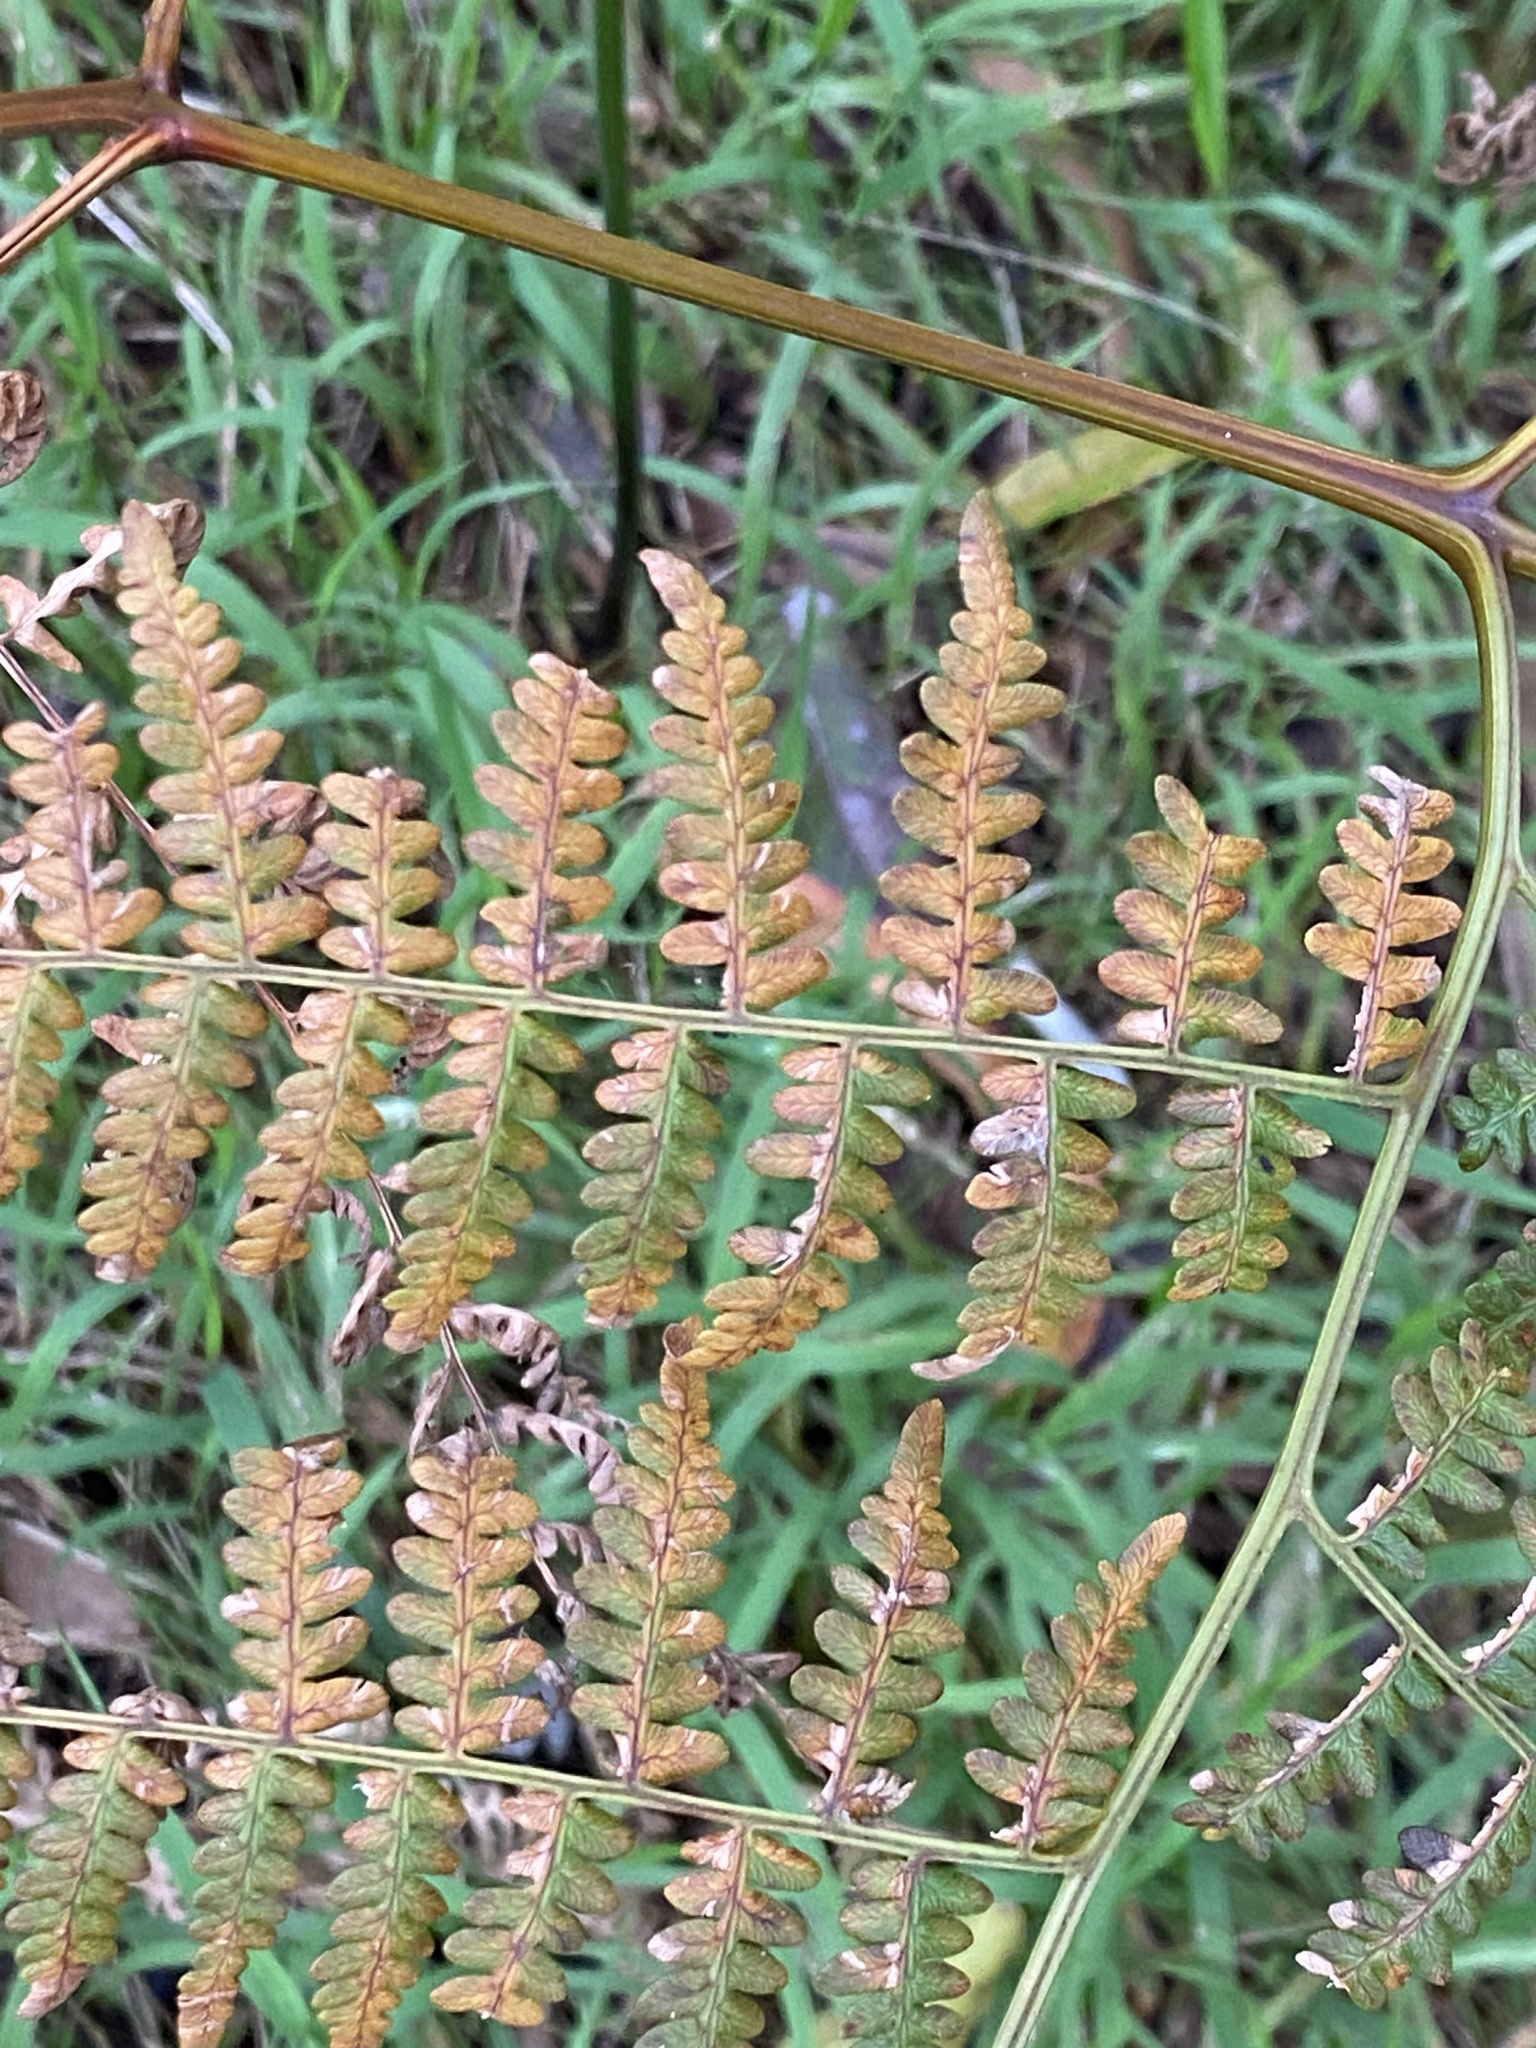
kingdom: Plantae
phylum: Tracheophyta
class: Polypodiopsida
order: Polypodiales
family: Dennstaedtiaceae
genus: Pteridium
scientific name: Pteridium aquilinum
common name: Bracken
